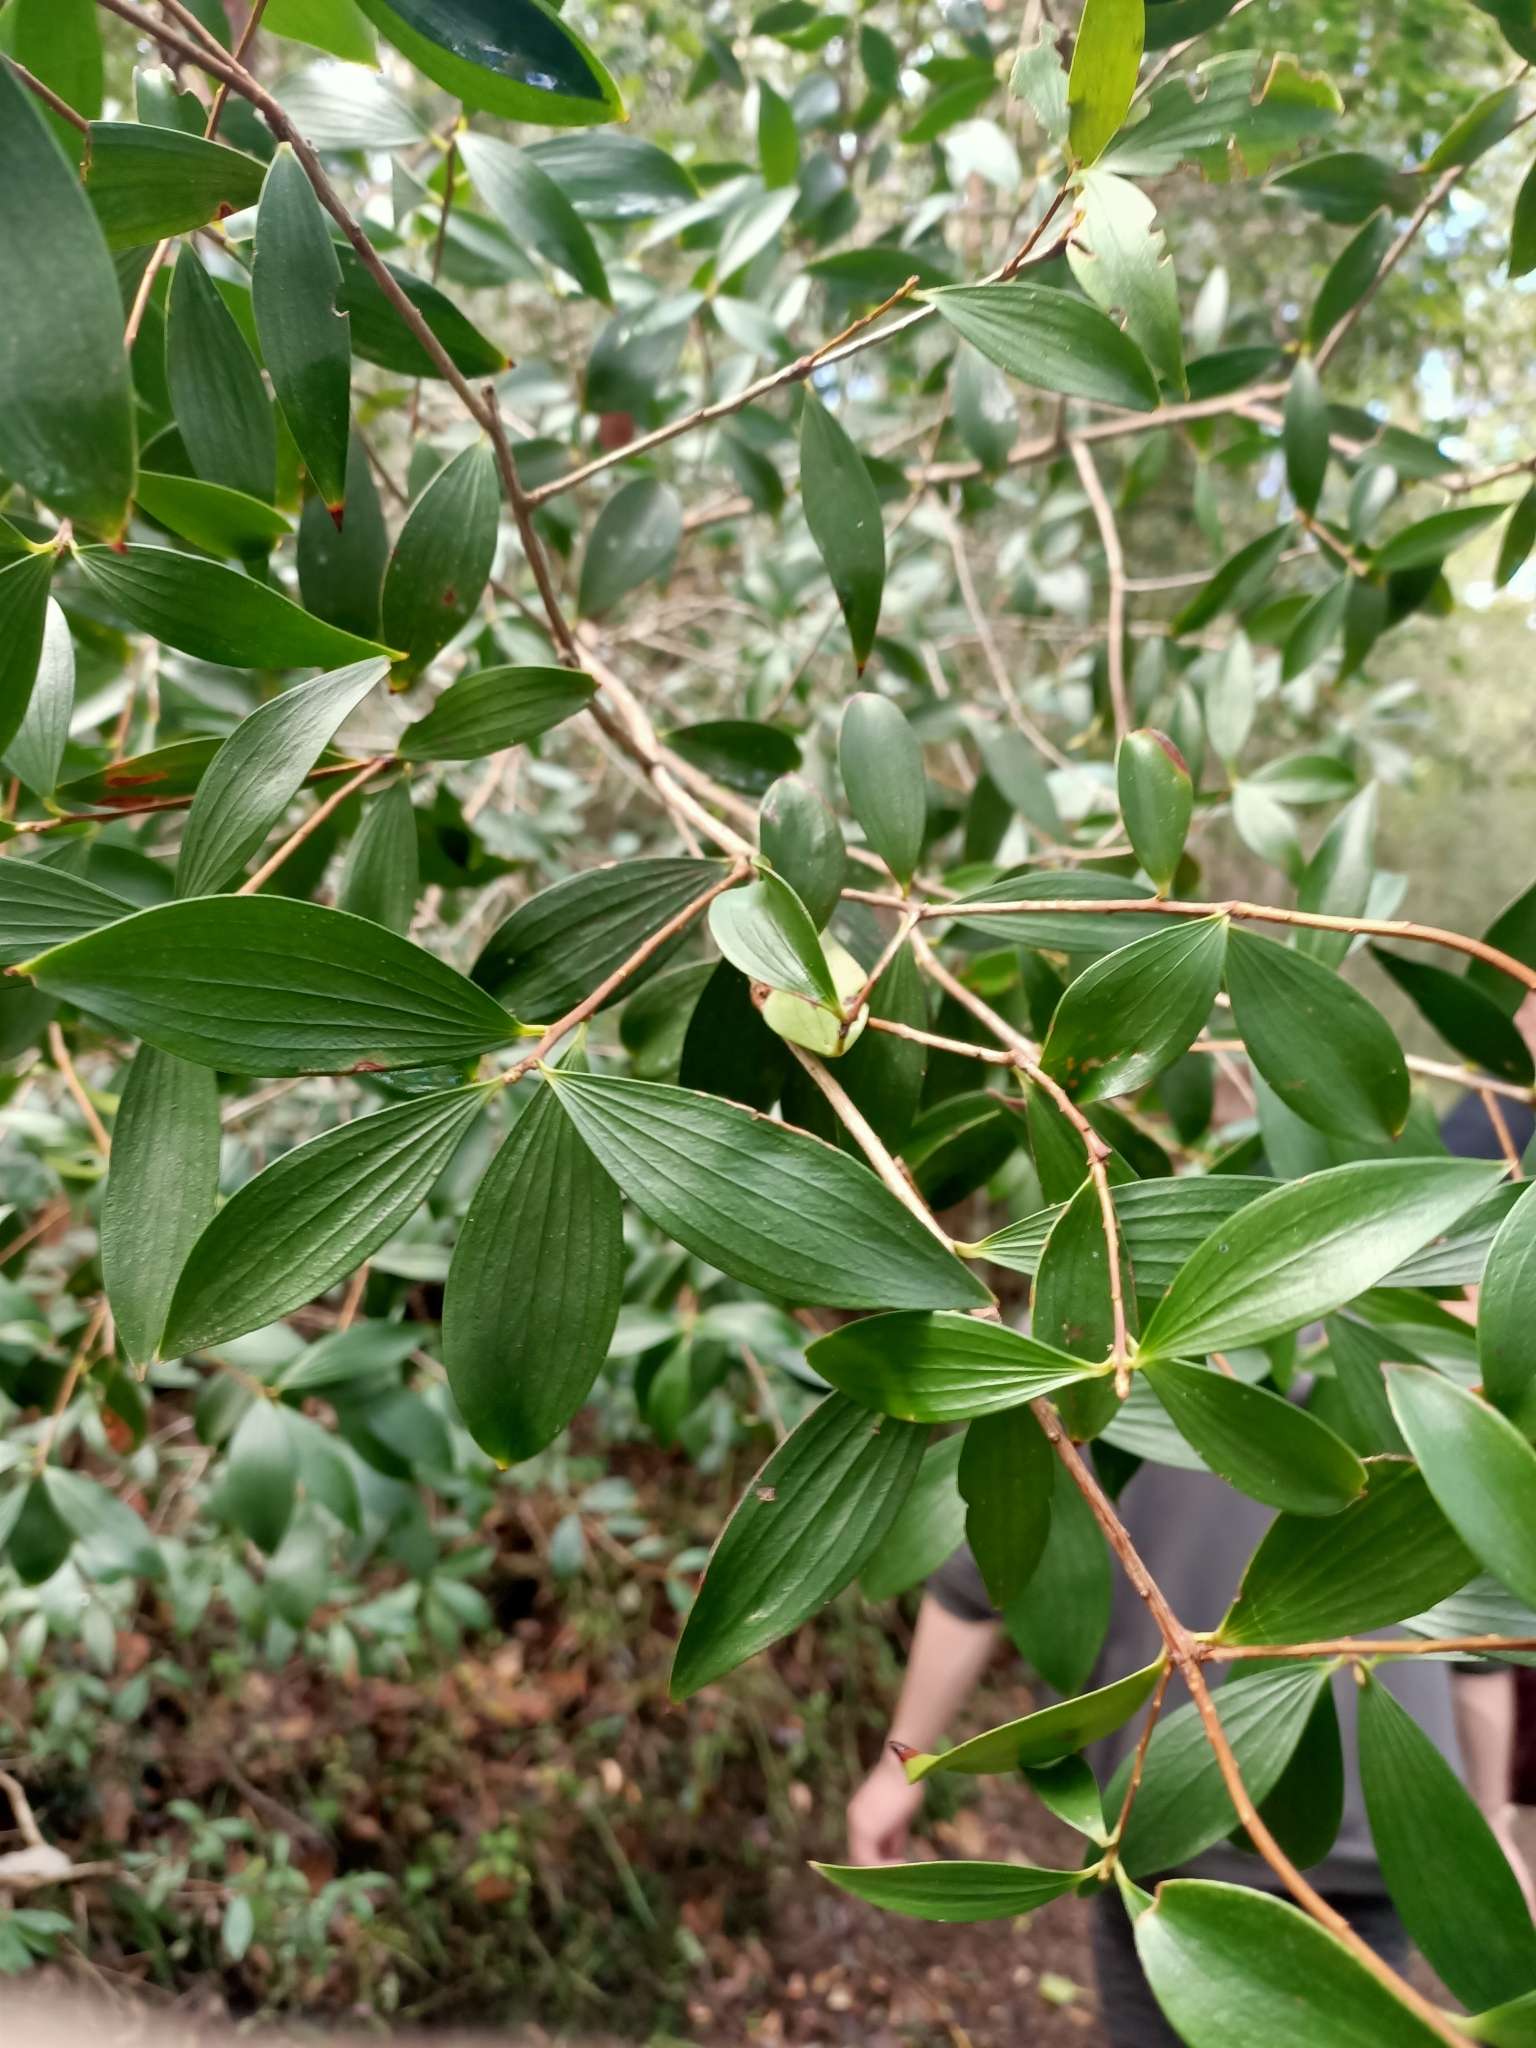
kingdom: Plantae
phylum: Tracheophyta
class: Magnoliopsida
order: Ericales
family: Ericaceae
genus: Trochocarpa
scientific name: Trochocarpa laurina
